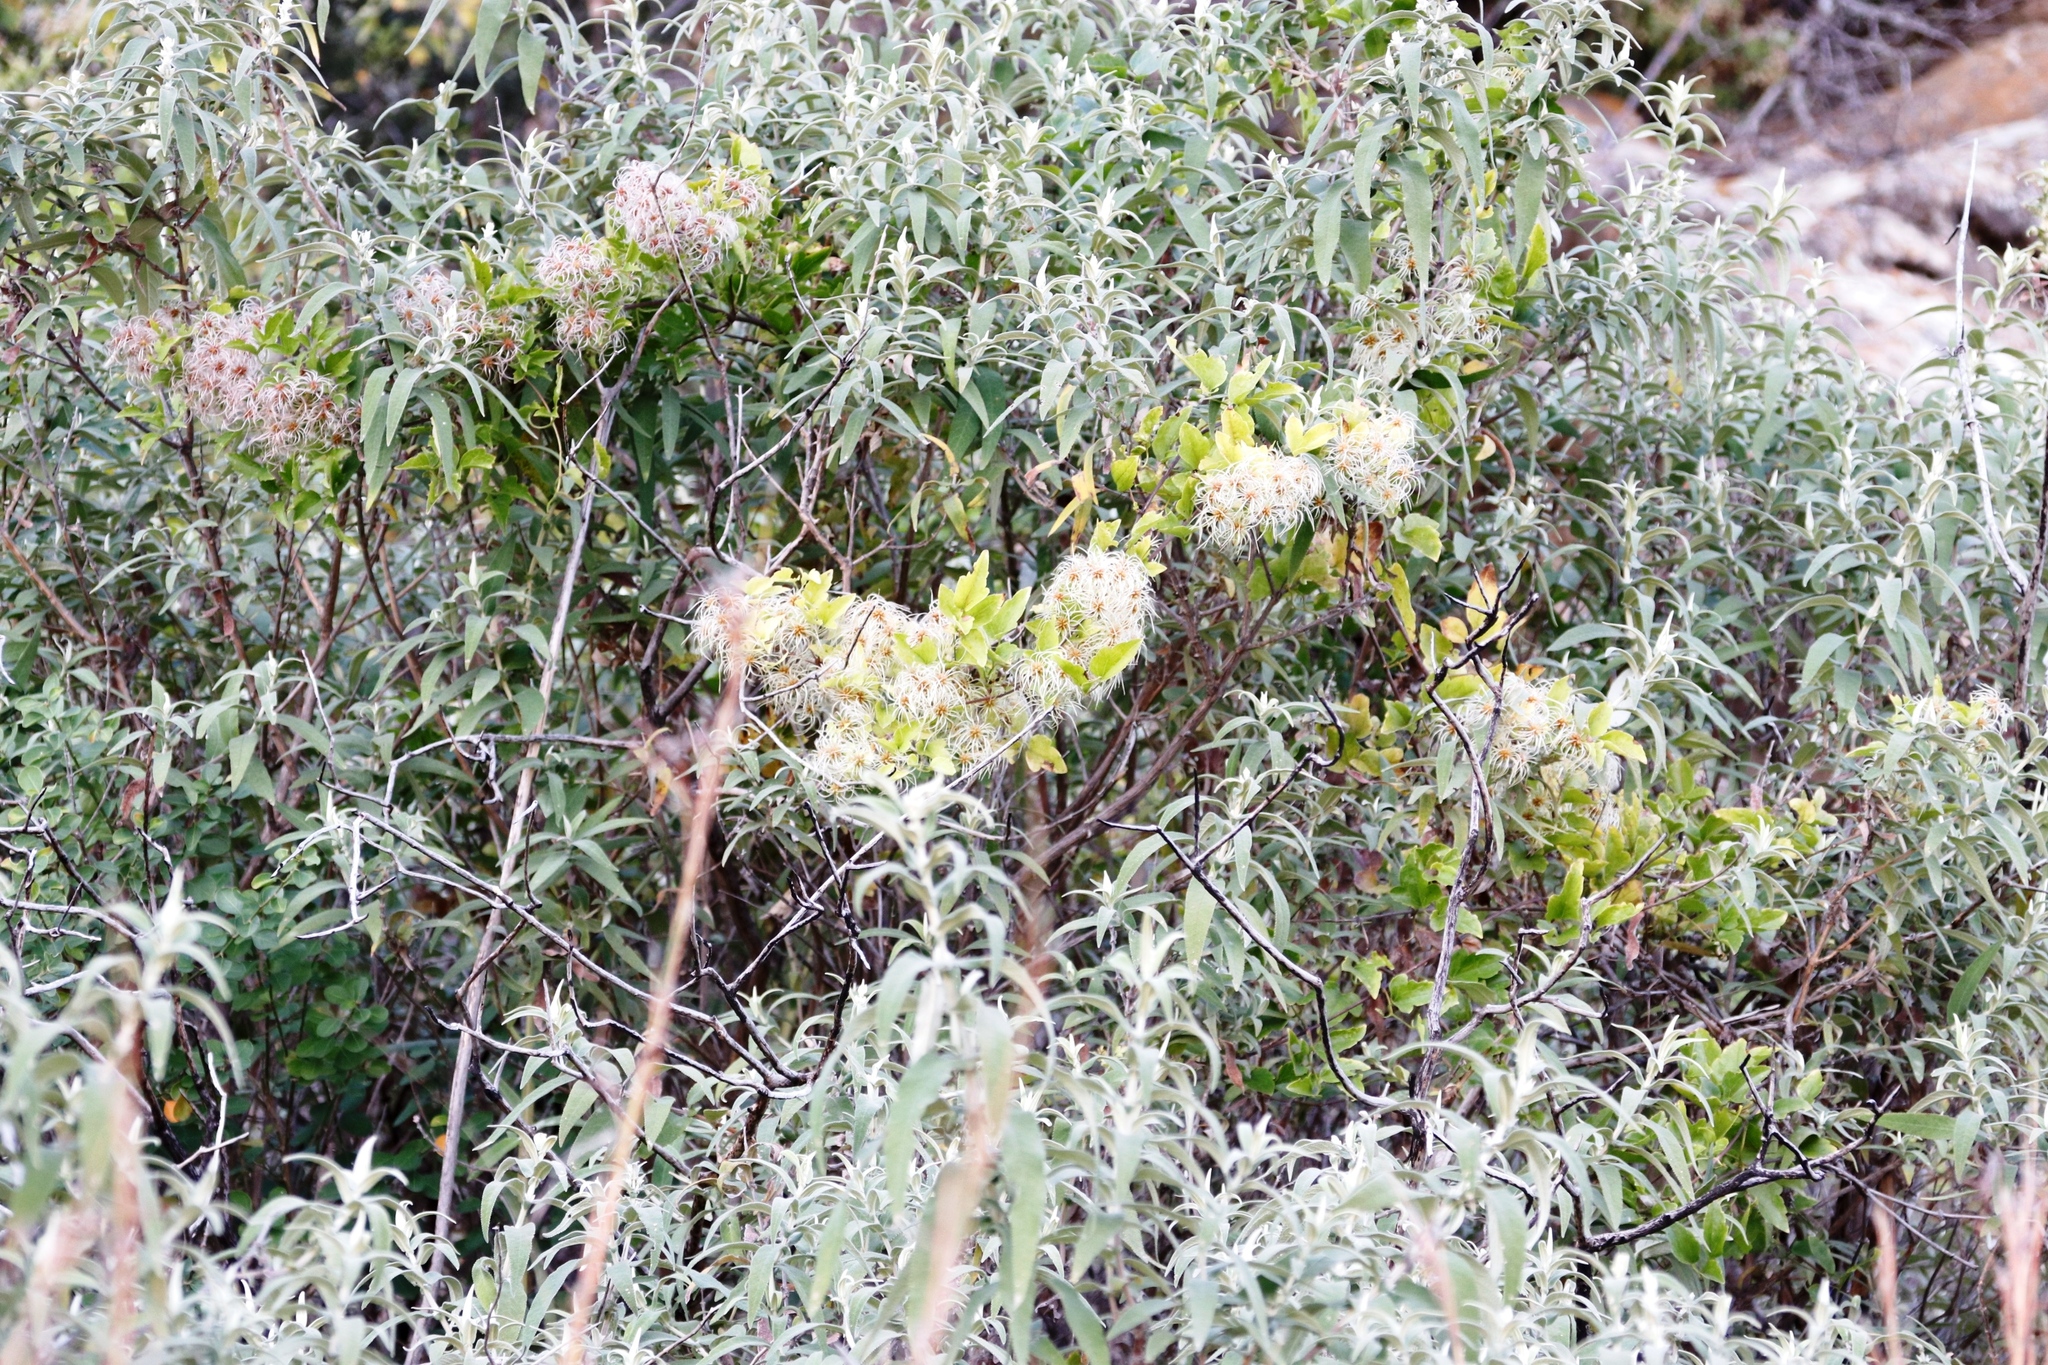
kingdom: Plantae
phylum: Tracheophyta
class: Magnoliopsida
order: Ranunculales
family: Ranunculaceae
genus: Clematis
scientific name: Clematis brachiata
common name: Traveler's-joy
